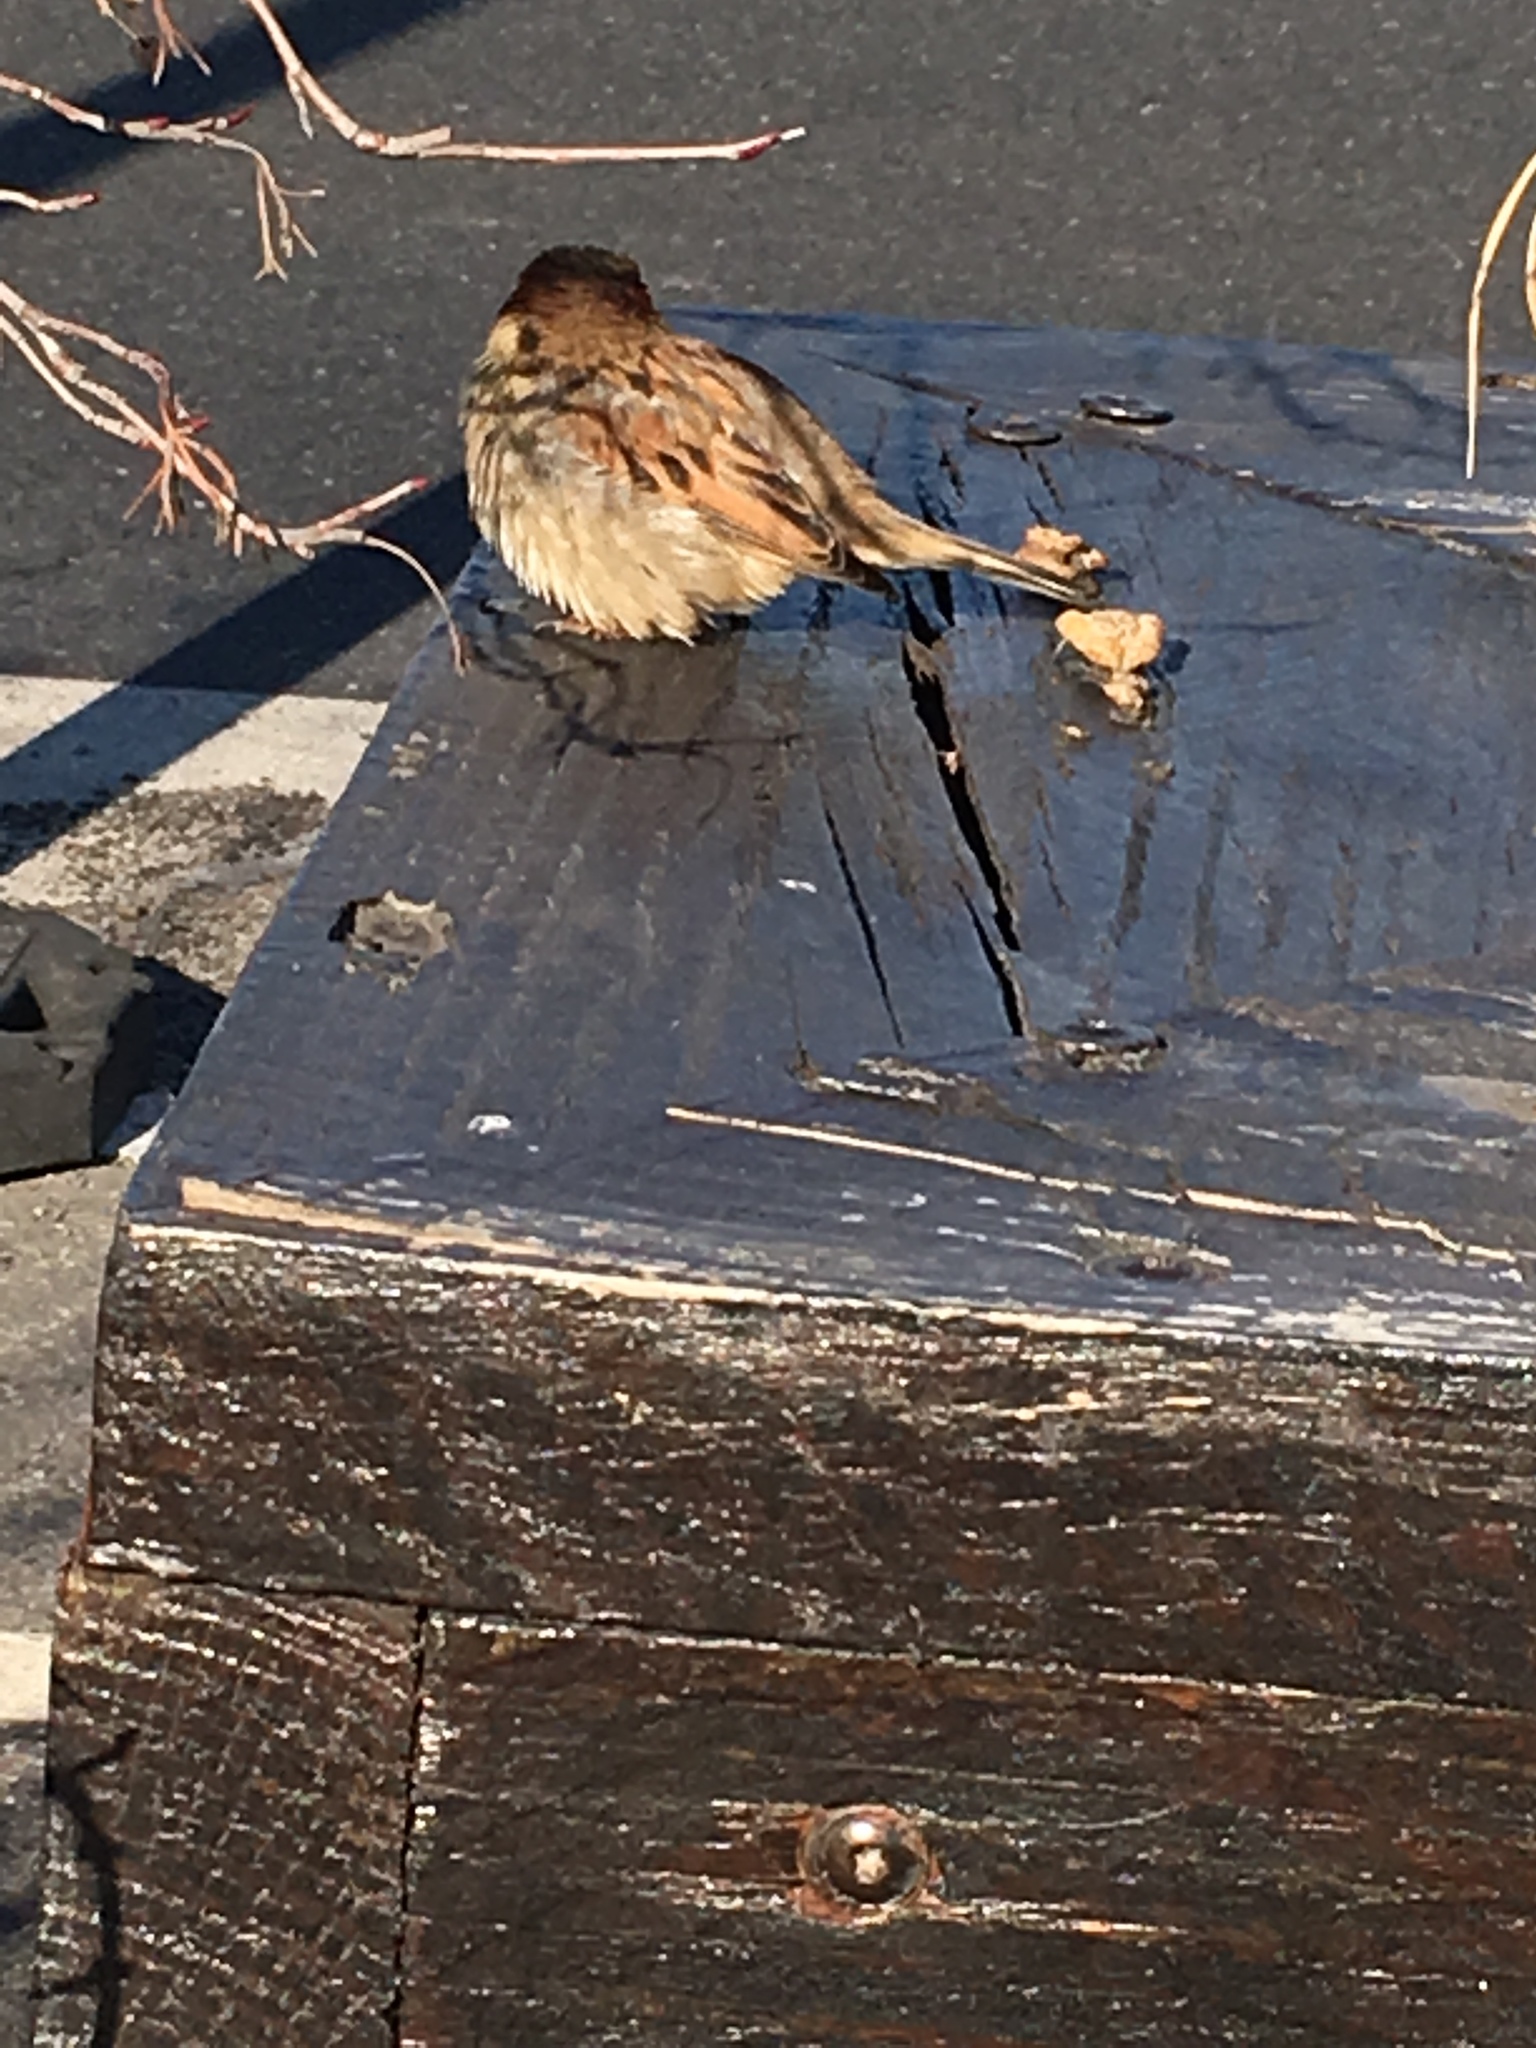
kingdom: Animalia
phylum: Chordata
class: Aves
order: Passeriformes
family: Passeridae
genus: Passer
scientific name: Passer domesticus
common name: House sparrow
